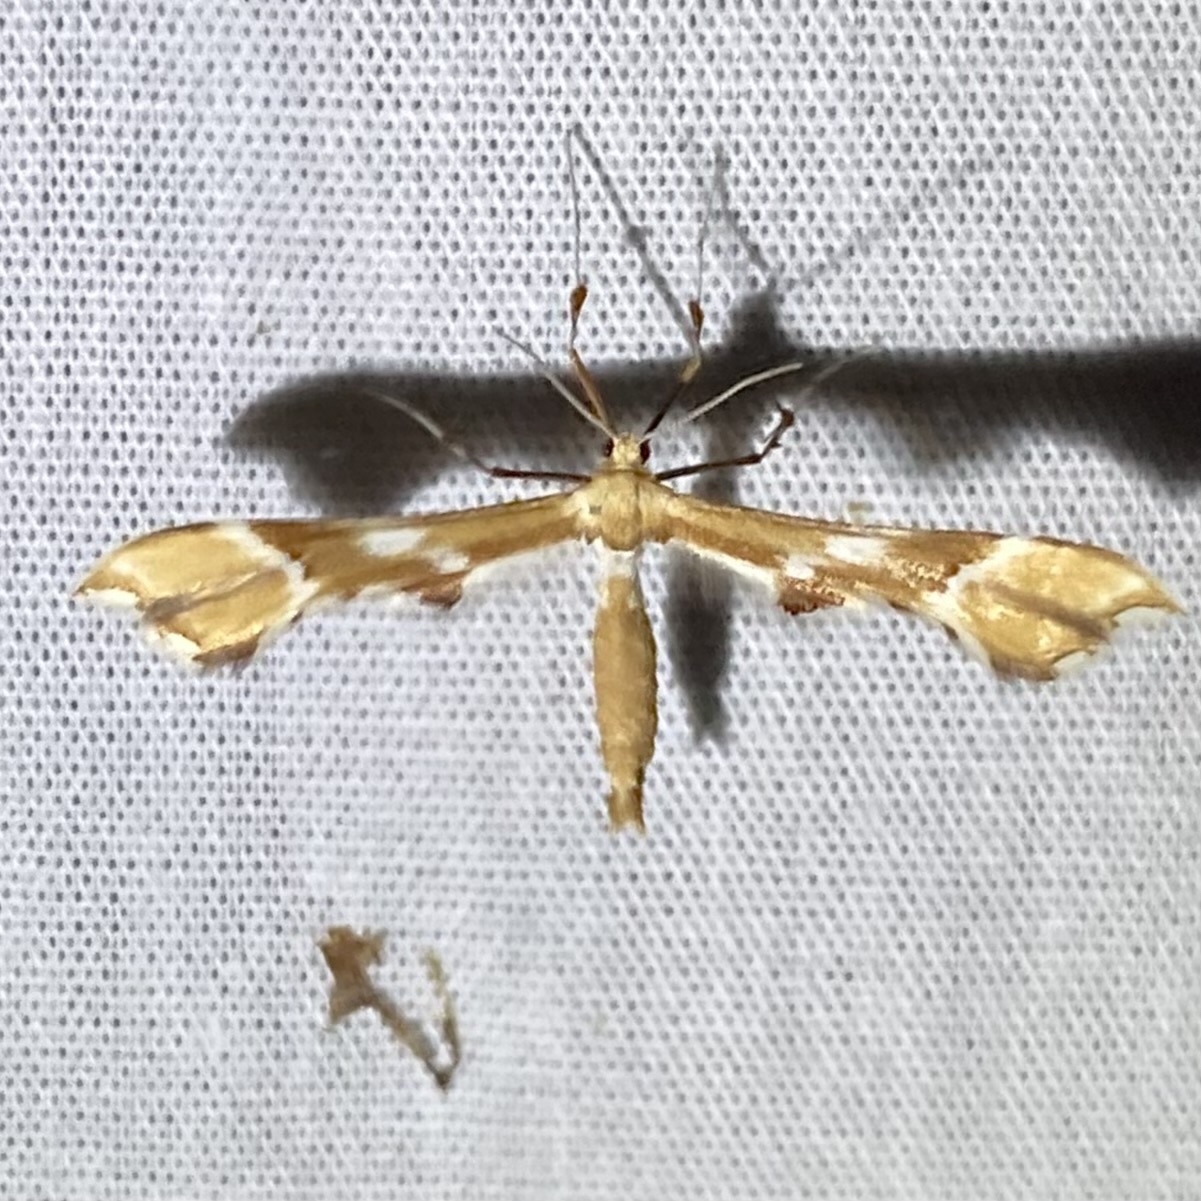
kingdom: Animalia
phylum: Arthropoda
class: Insecta
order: Lepidoptera
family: Pterophoridae
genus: Cnaemidophorus
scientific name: Cnaemidophorus rhododactyla
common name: Rose plume
